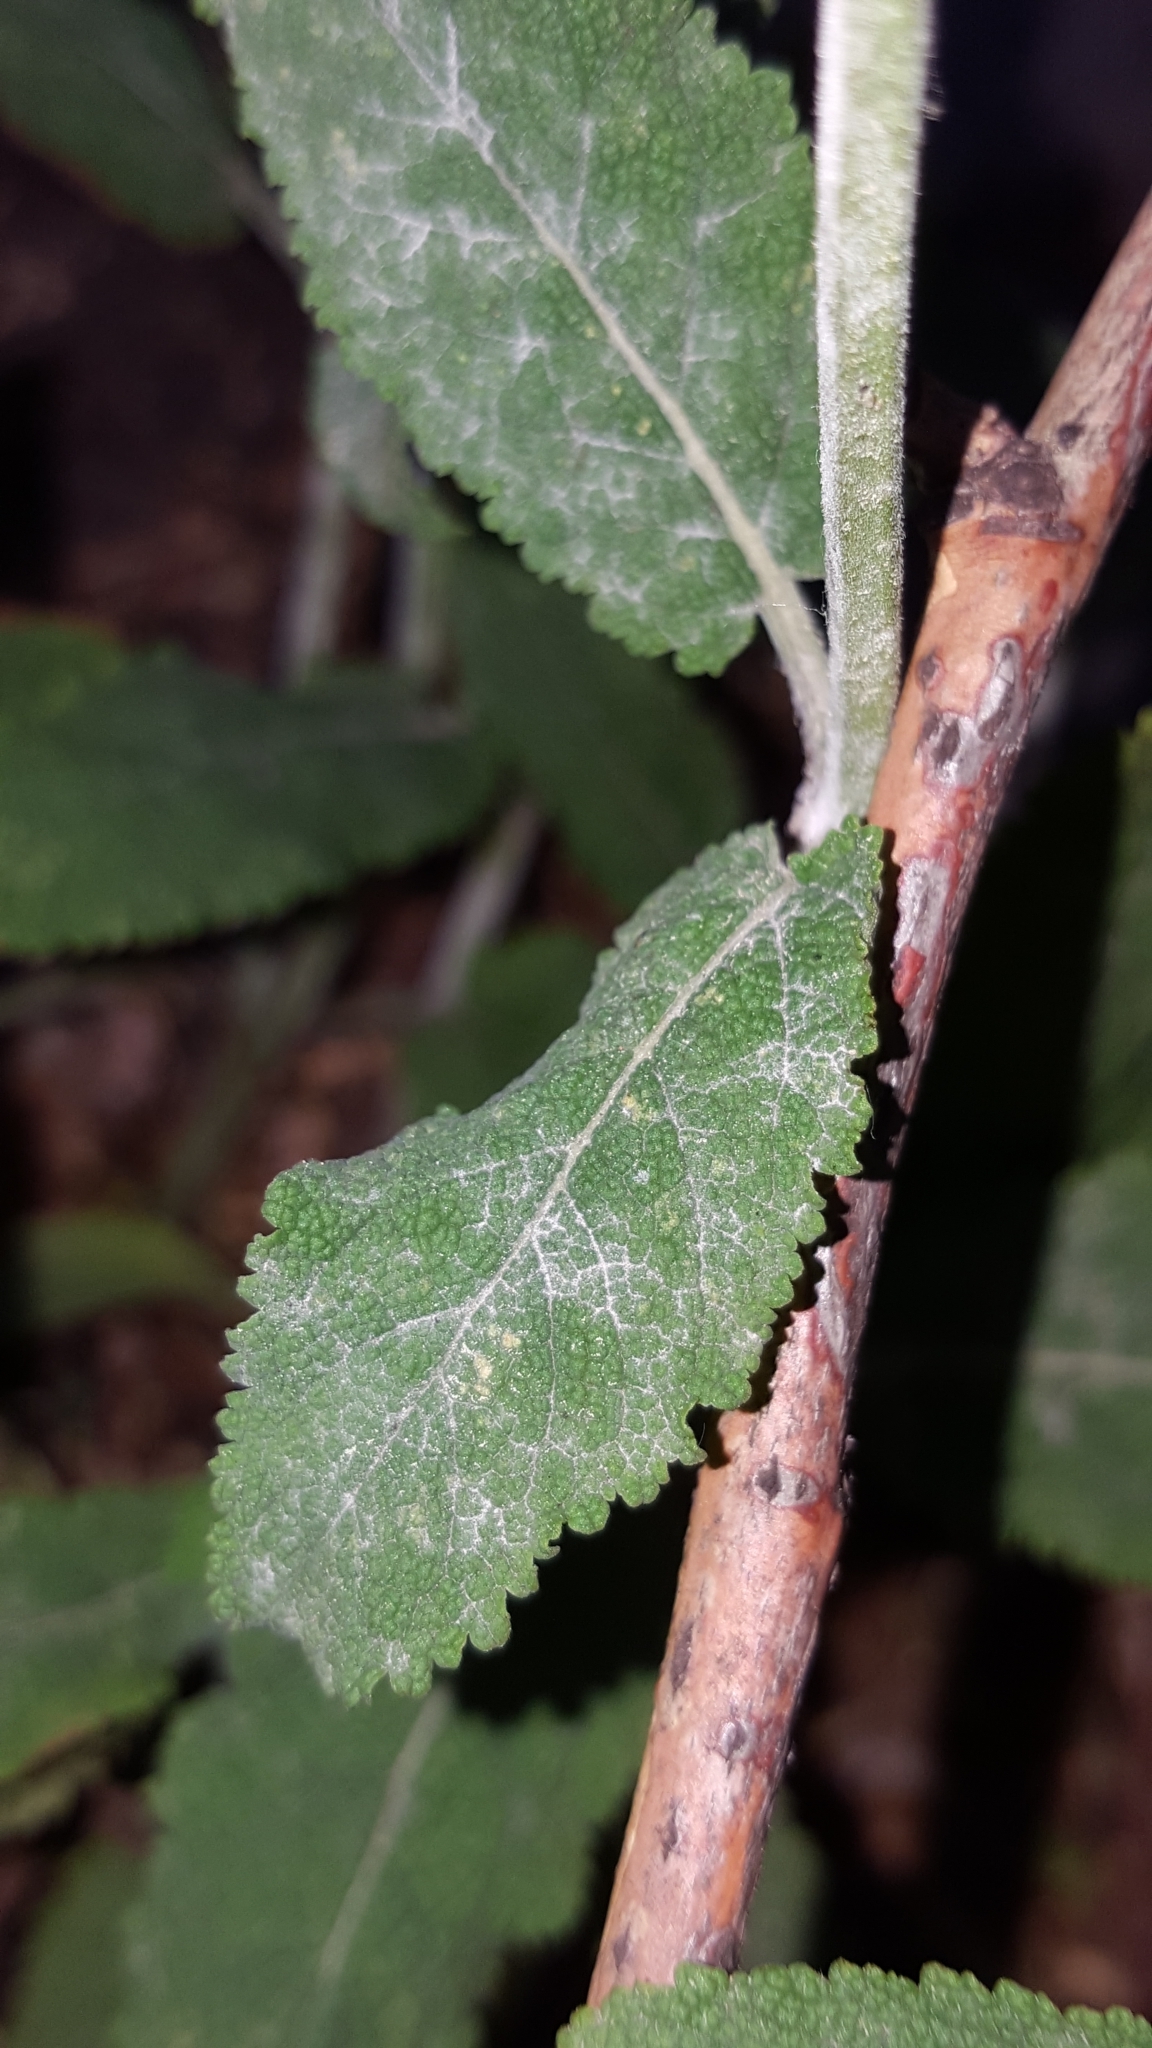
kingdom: Fungi
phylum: Ascomycota
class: Leotiomycetes
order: Helotiales
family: Erysiphaceae
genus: Golovinomyces
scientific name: Golovinomyces salviae
